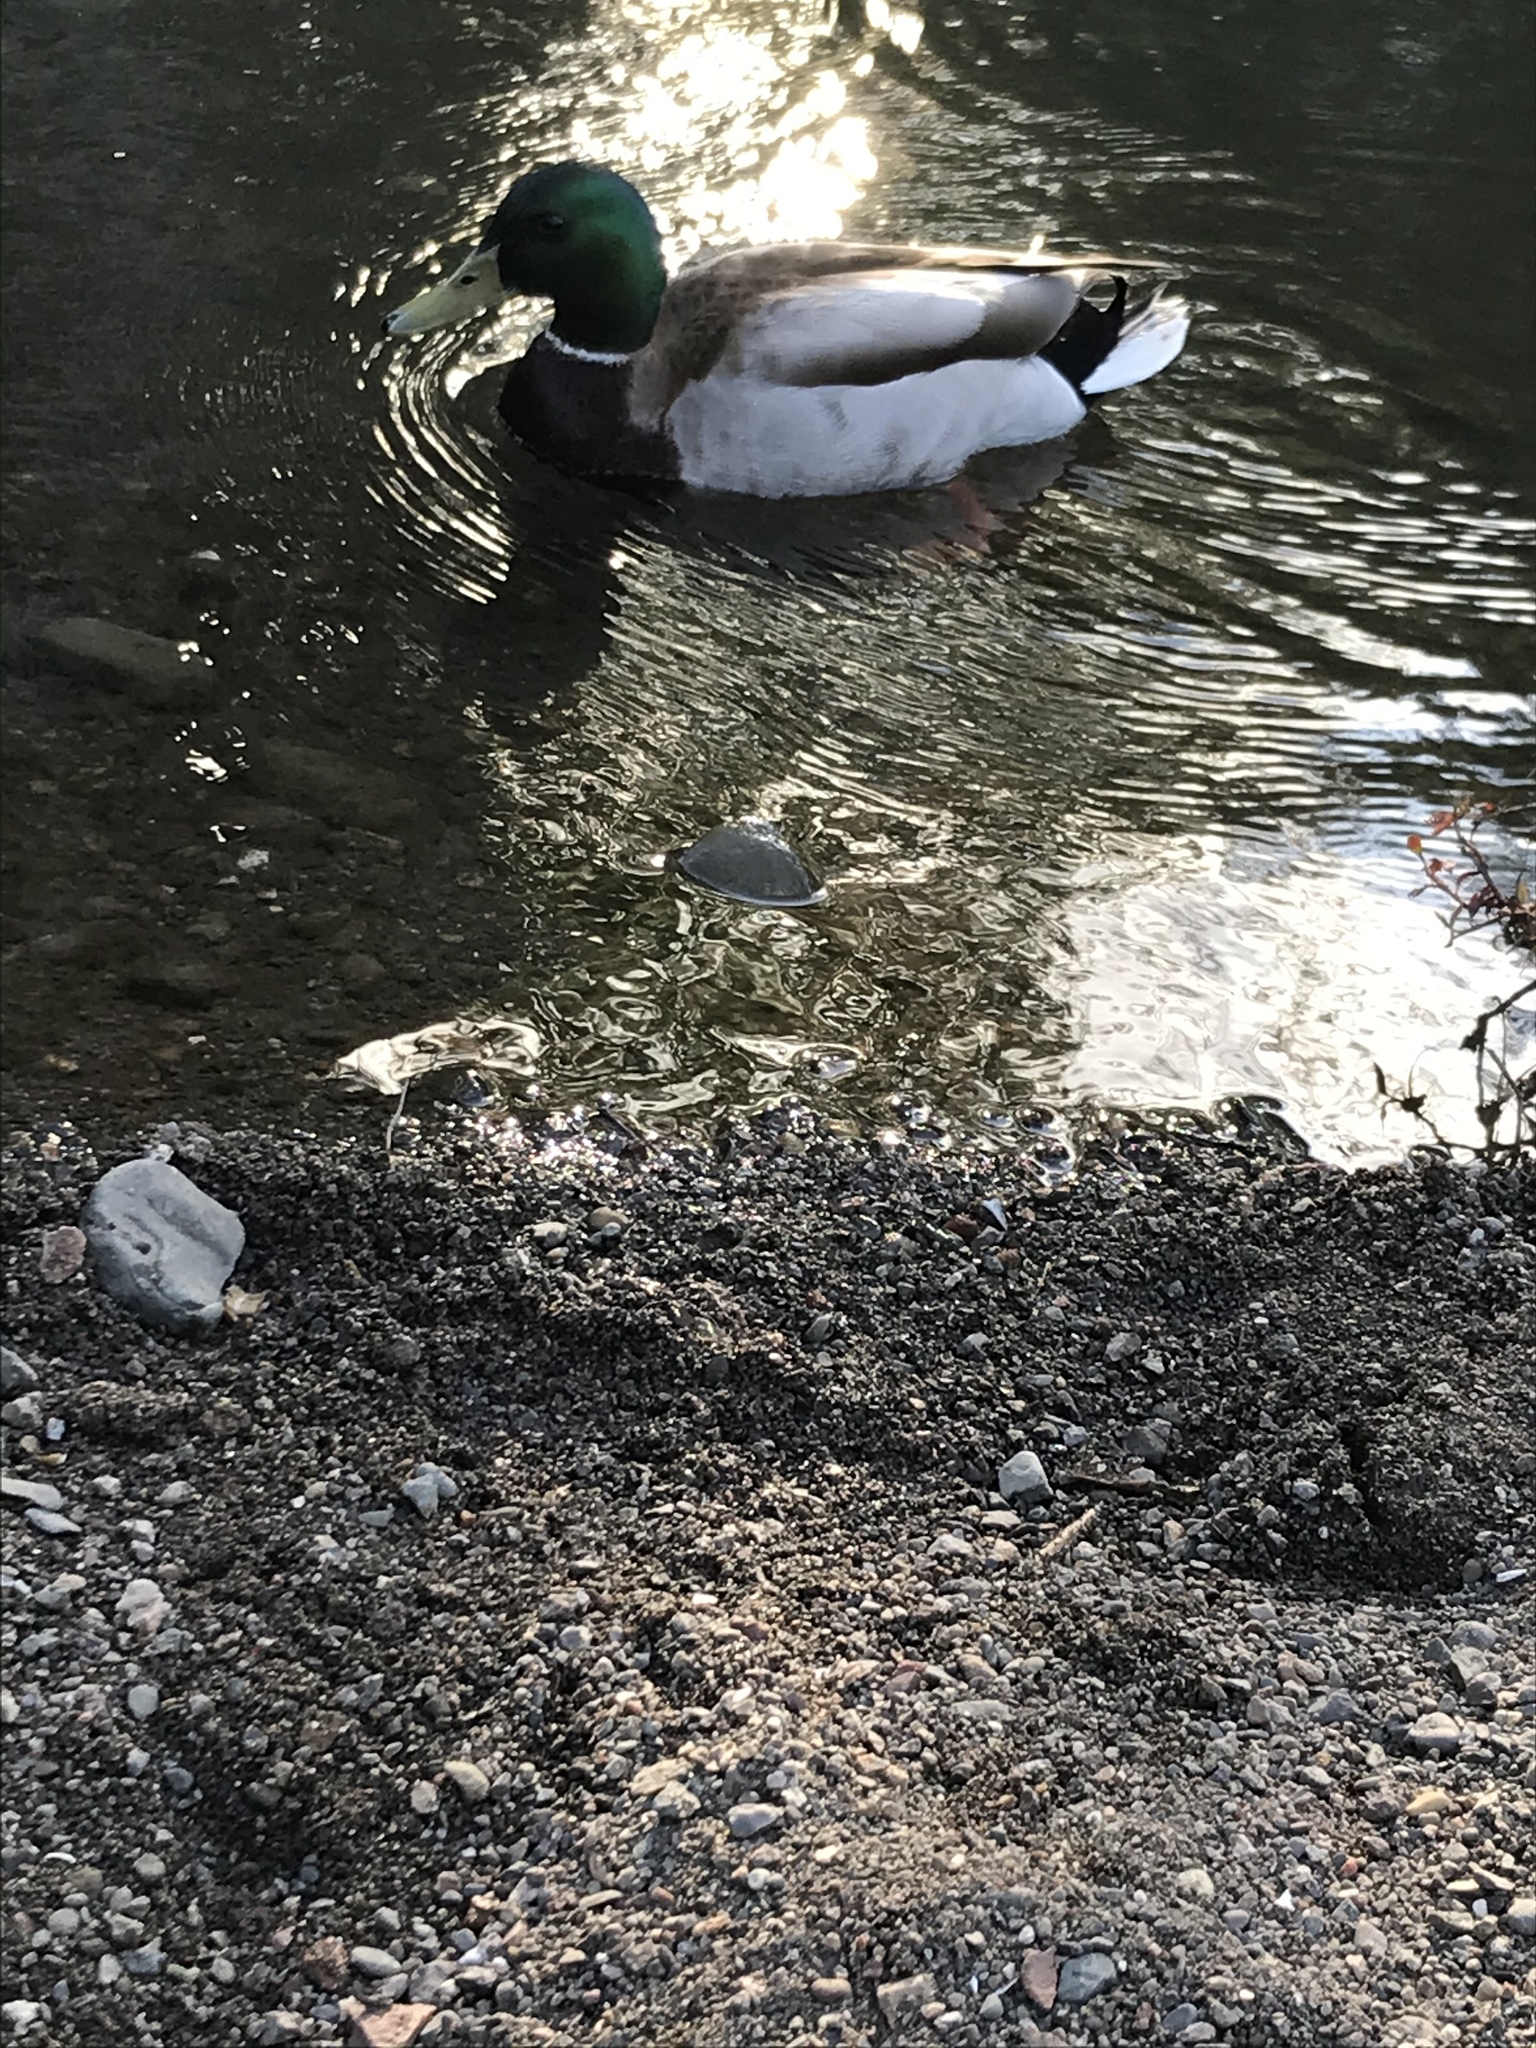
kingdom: Animalia
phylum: Chordata
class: Aves
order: Anseriformes
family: Anatidae
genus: Anas
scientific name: Anas platyrhynchos
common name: Mallard
